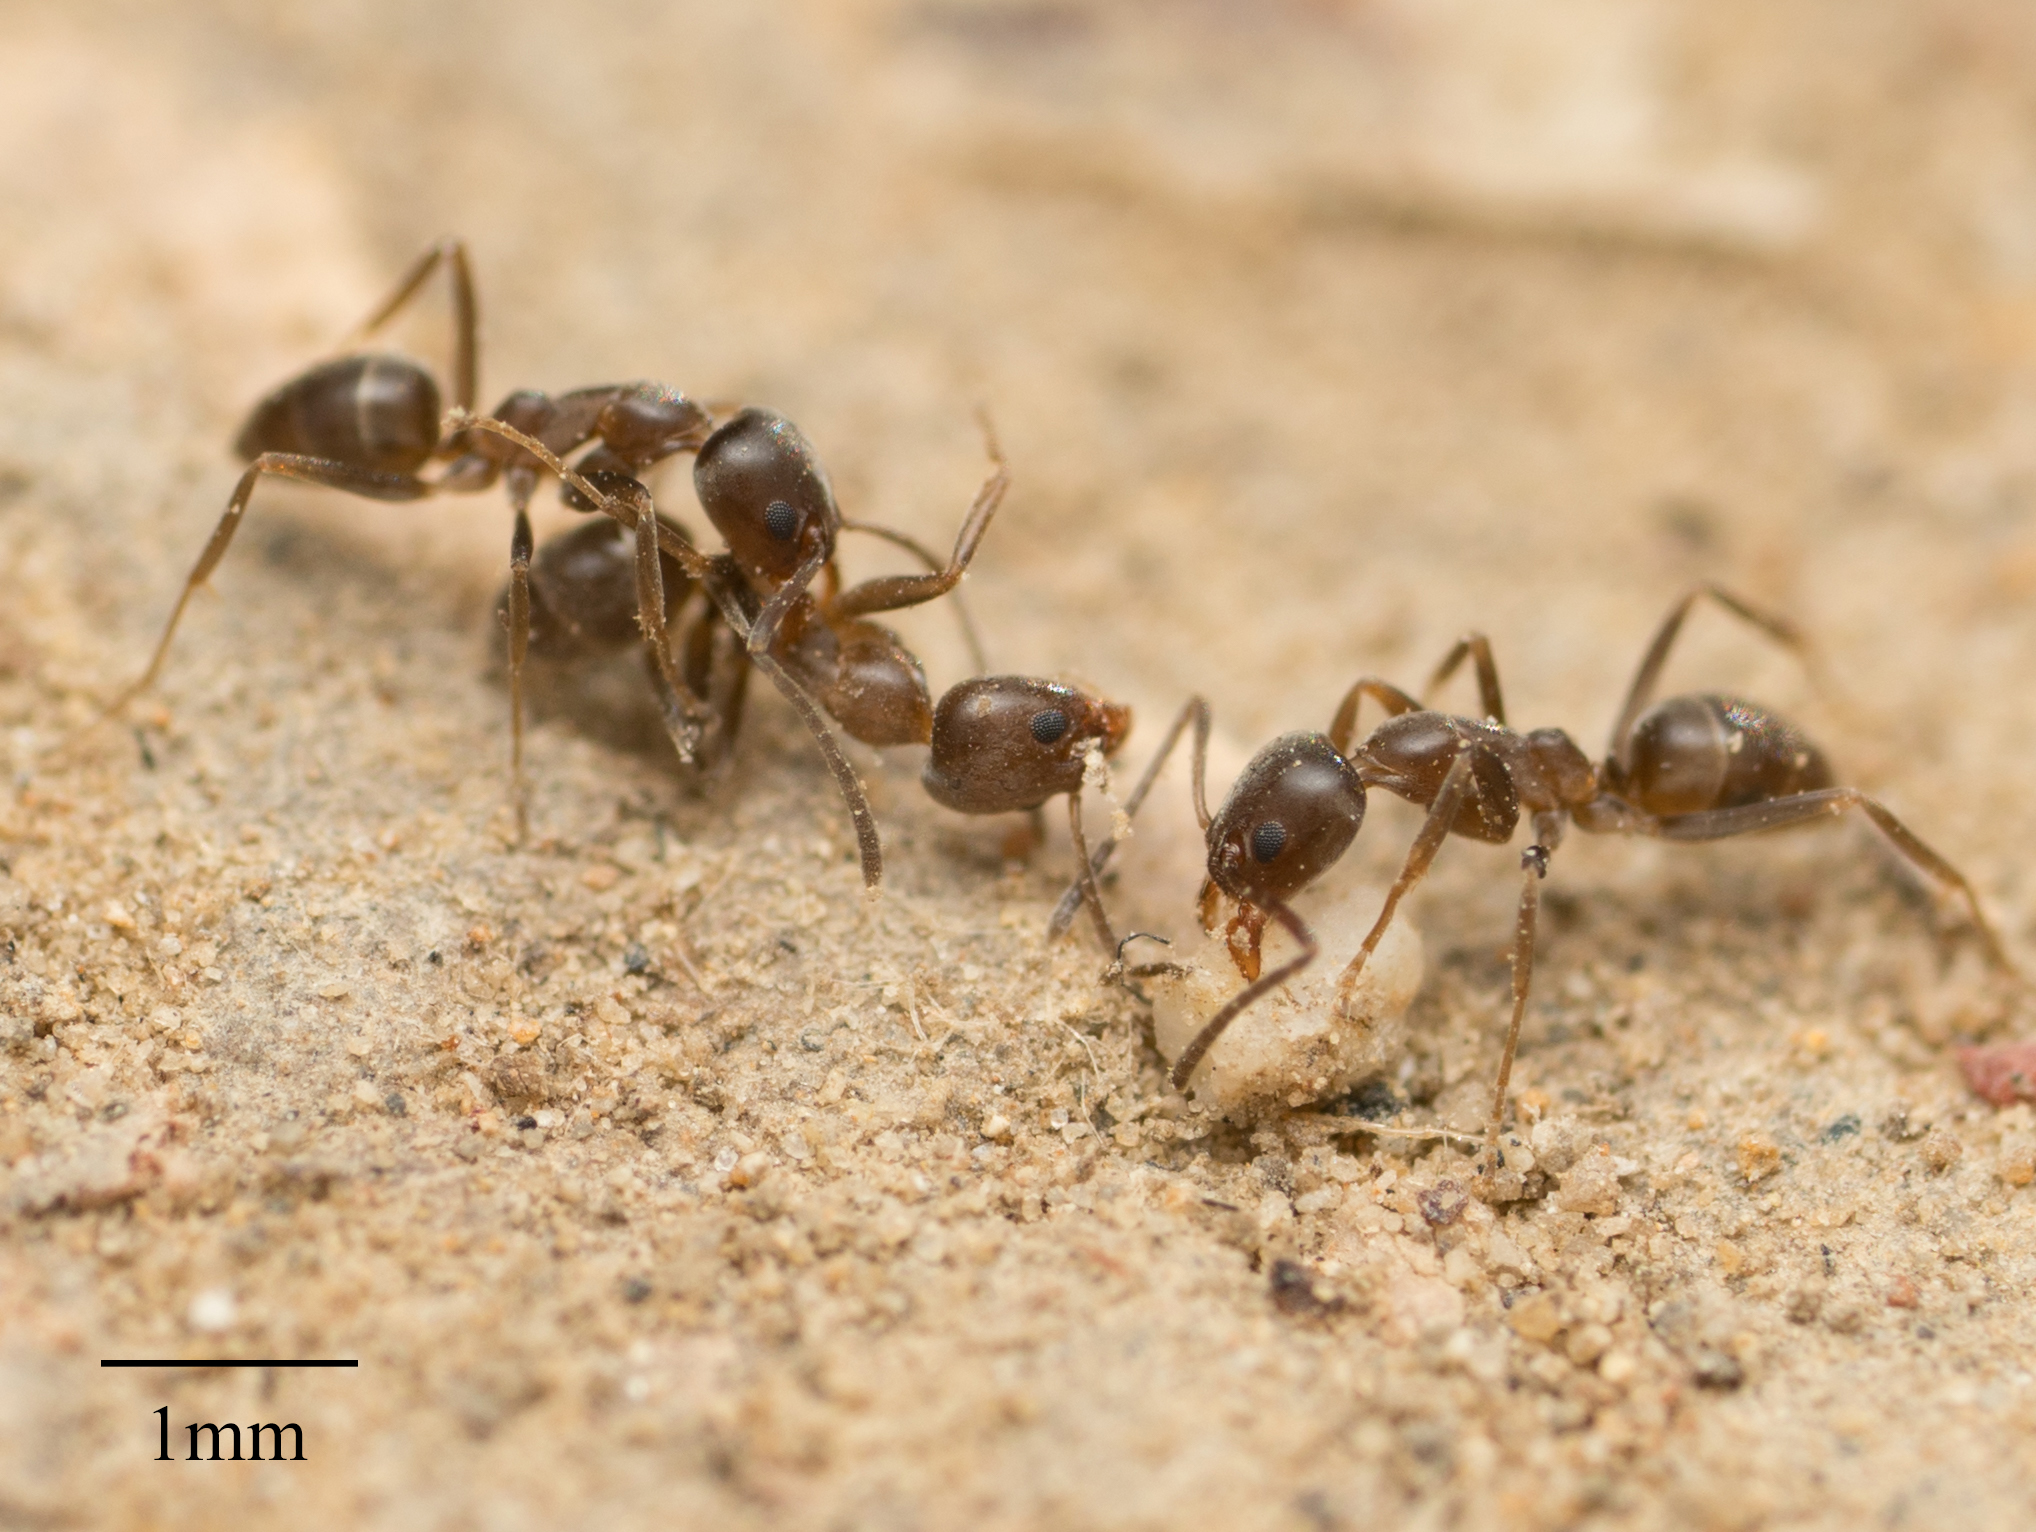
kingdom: Animalia
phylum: Arthropoda
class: Insecta
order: Hymenoptera
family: Formicidae
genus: Linepithema
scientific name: Linepithema humile
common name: Argentine ant
